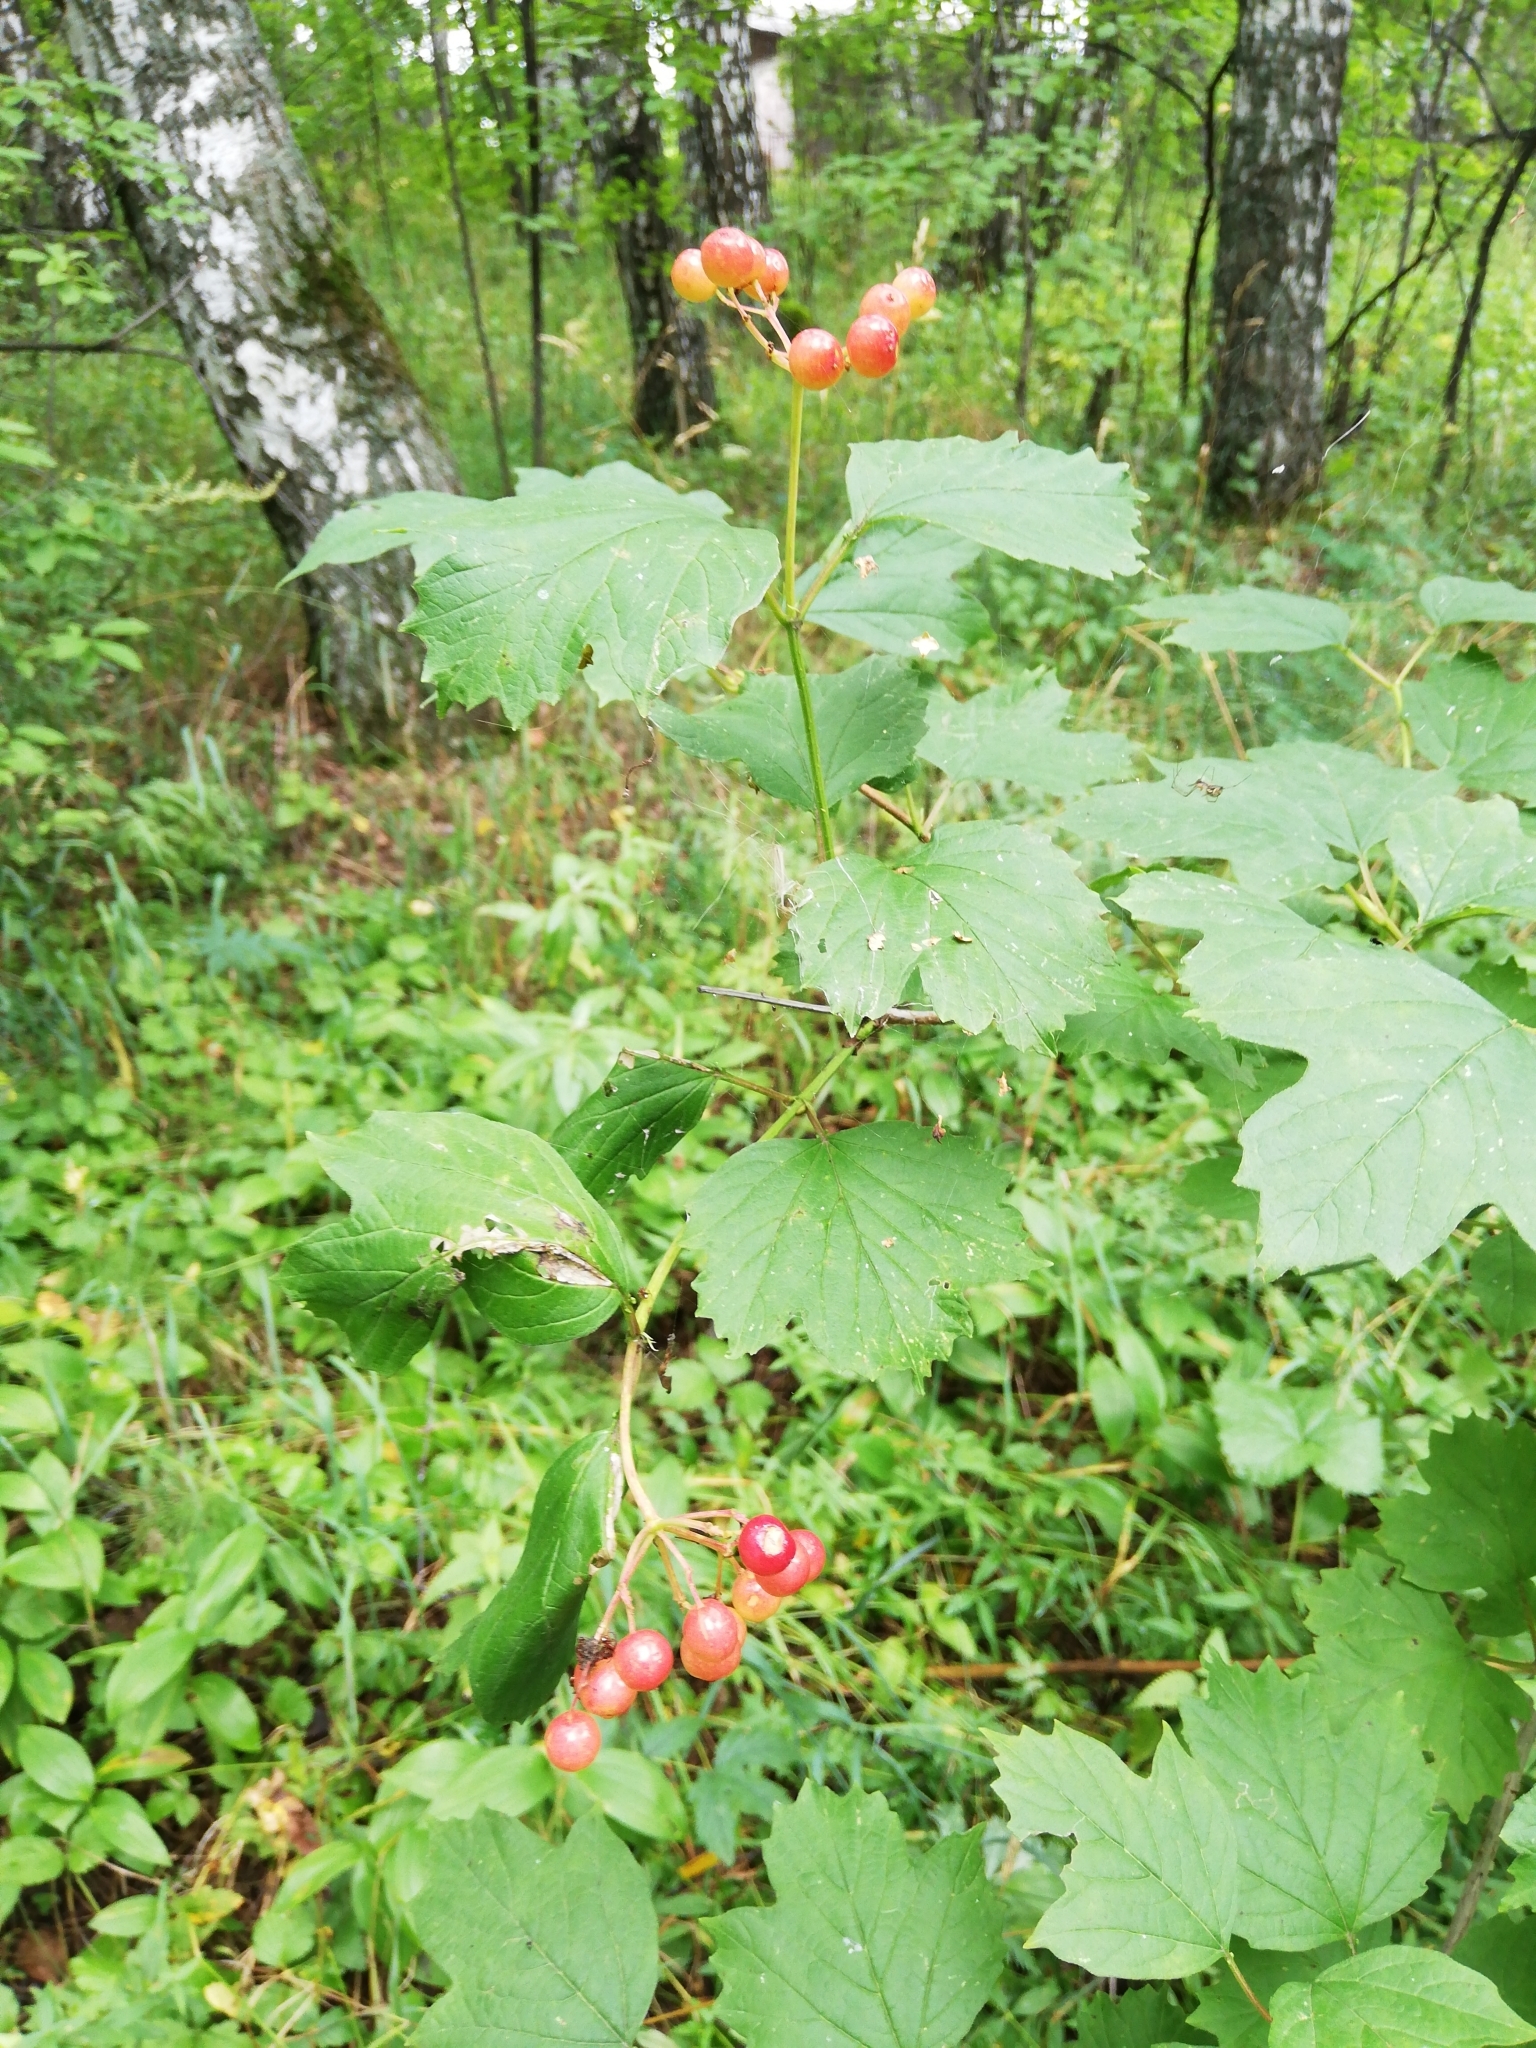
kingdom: Plantae
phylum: Tracheophyta
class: Magnoliopsida
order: Dipsacales
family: Viburnaceae
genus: Viburnum
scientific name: Viburnum opulus
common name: Guelder-rose
